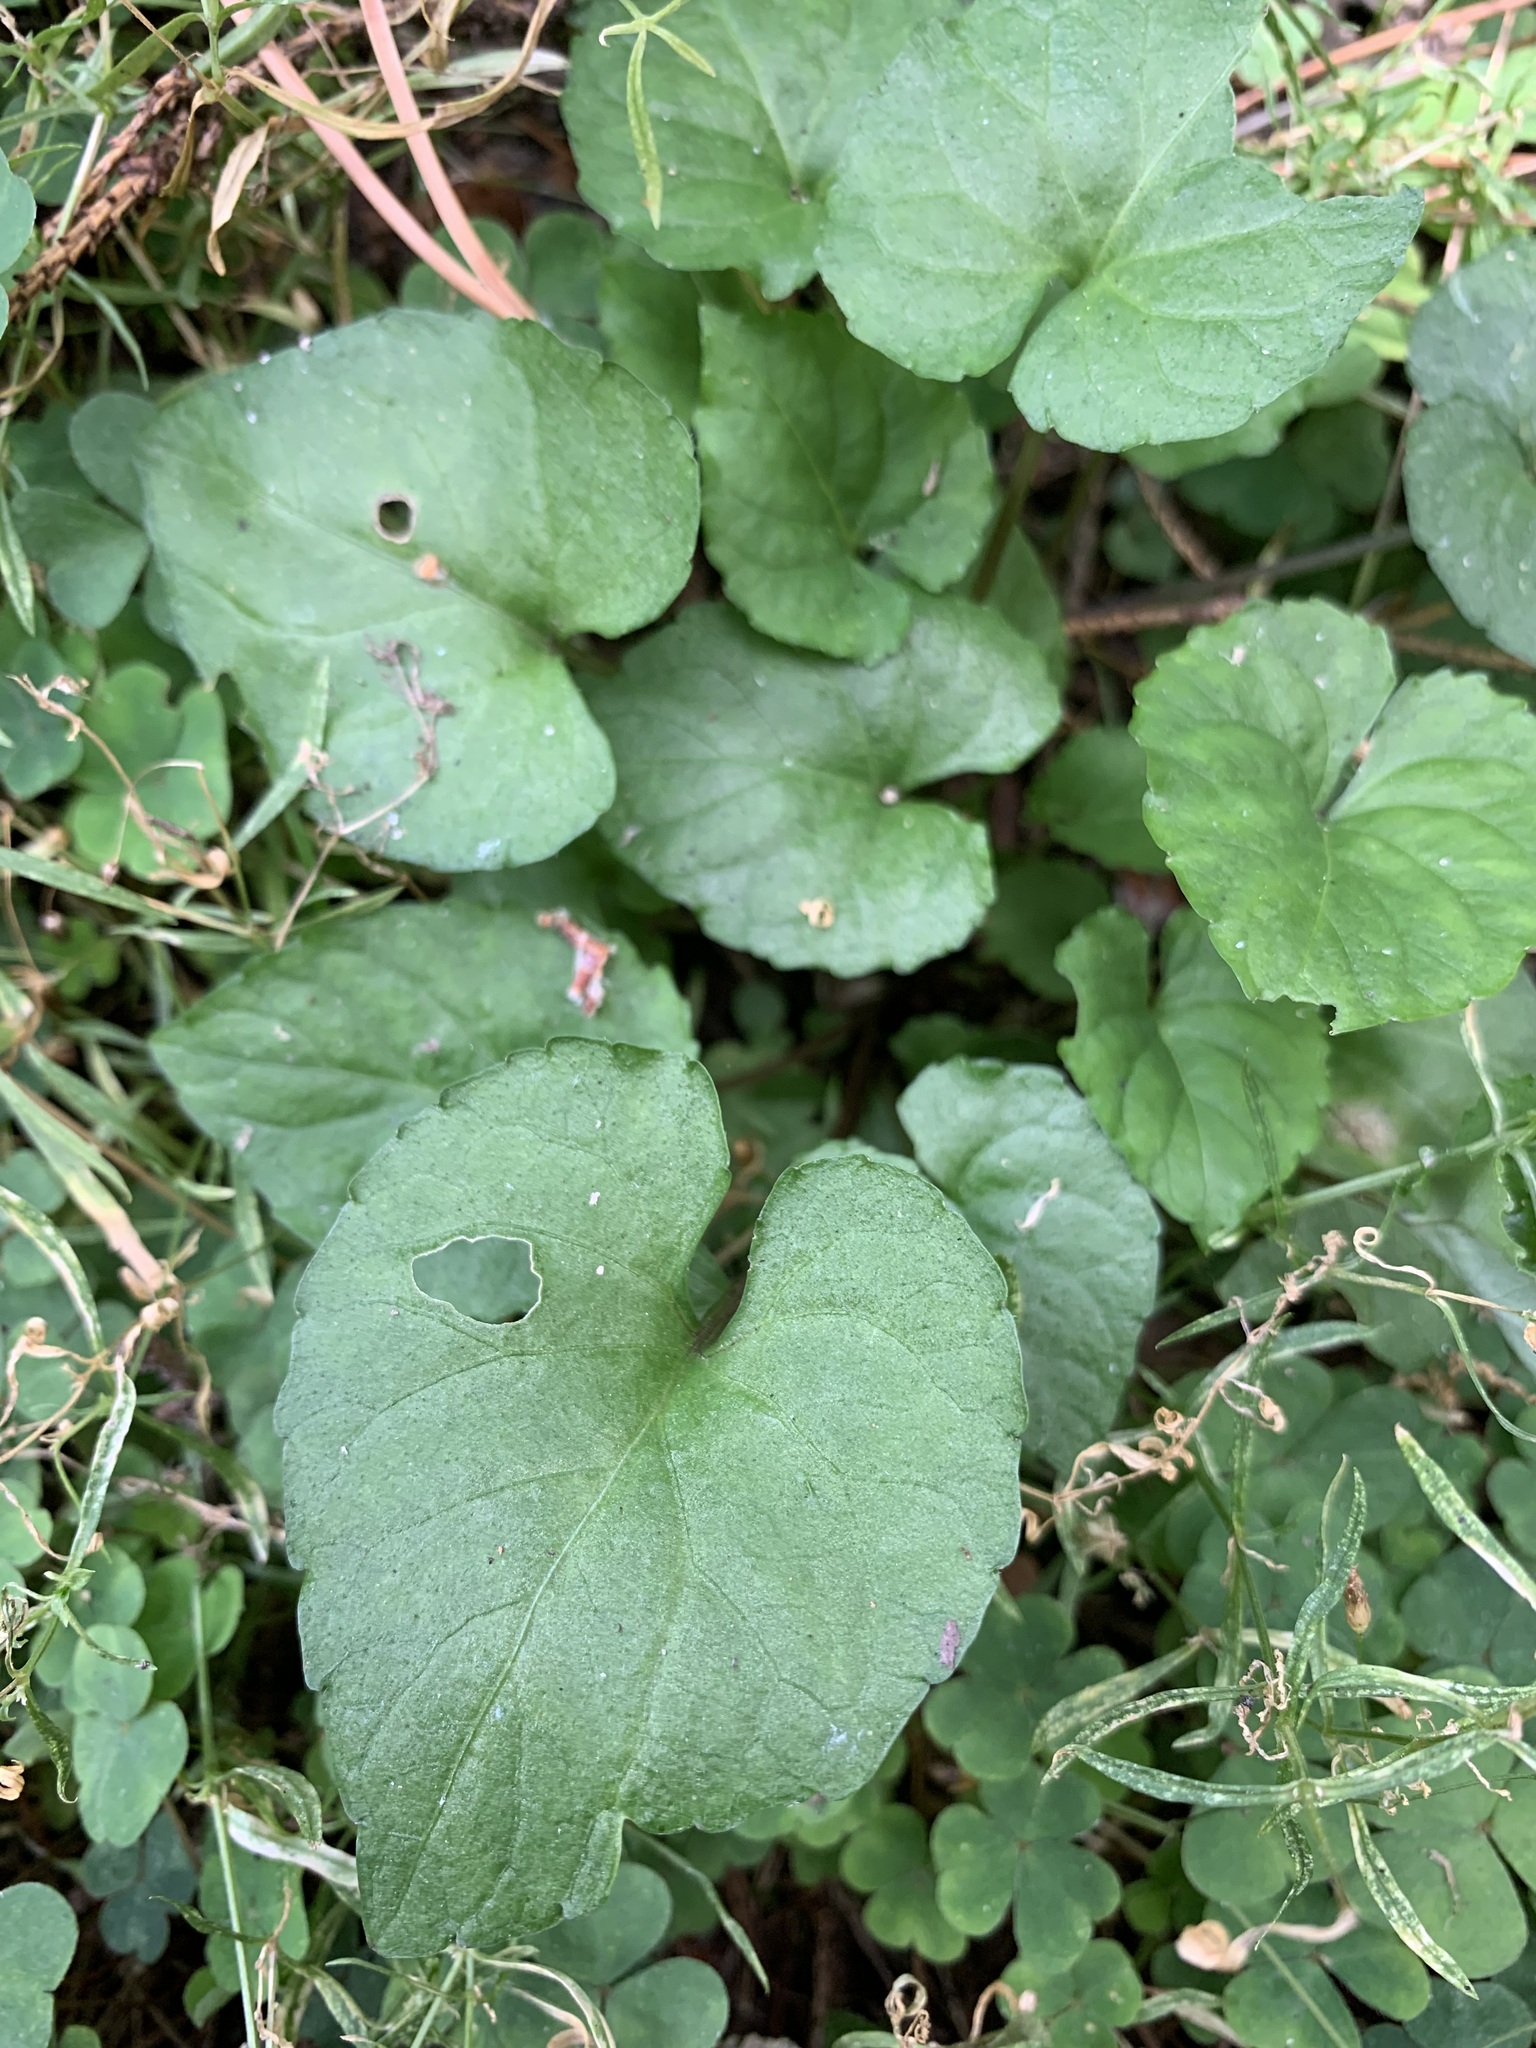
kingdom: Plantae
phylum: Tracheophyta
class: Magnoliopsida
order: Malpighiales
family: Violaceae
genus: Viola
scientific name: Viola selkirkii
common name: Selkirk's violet
